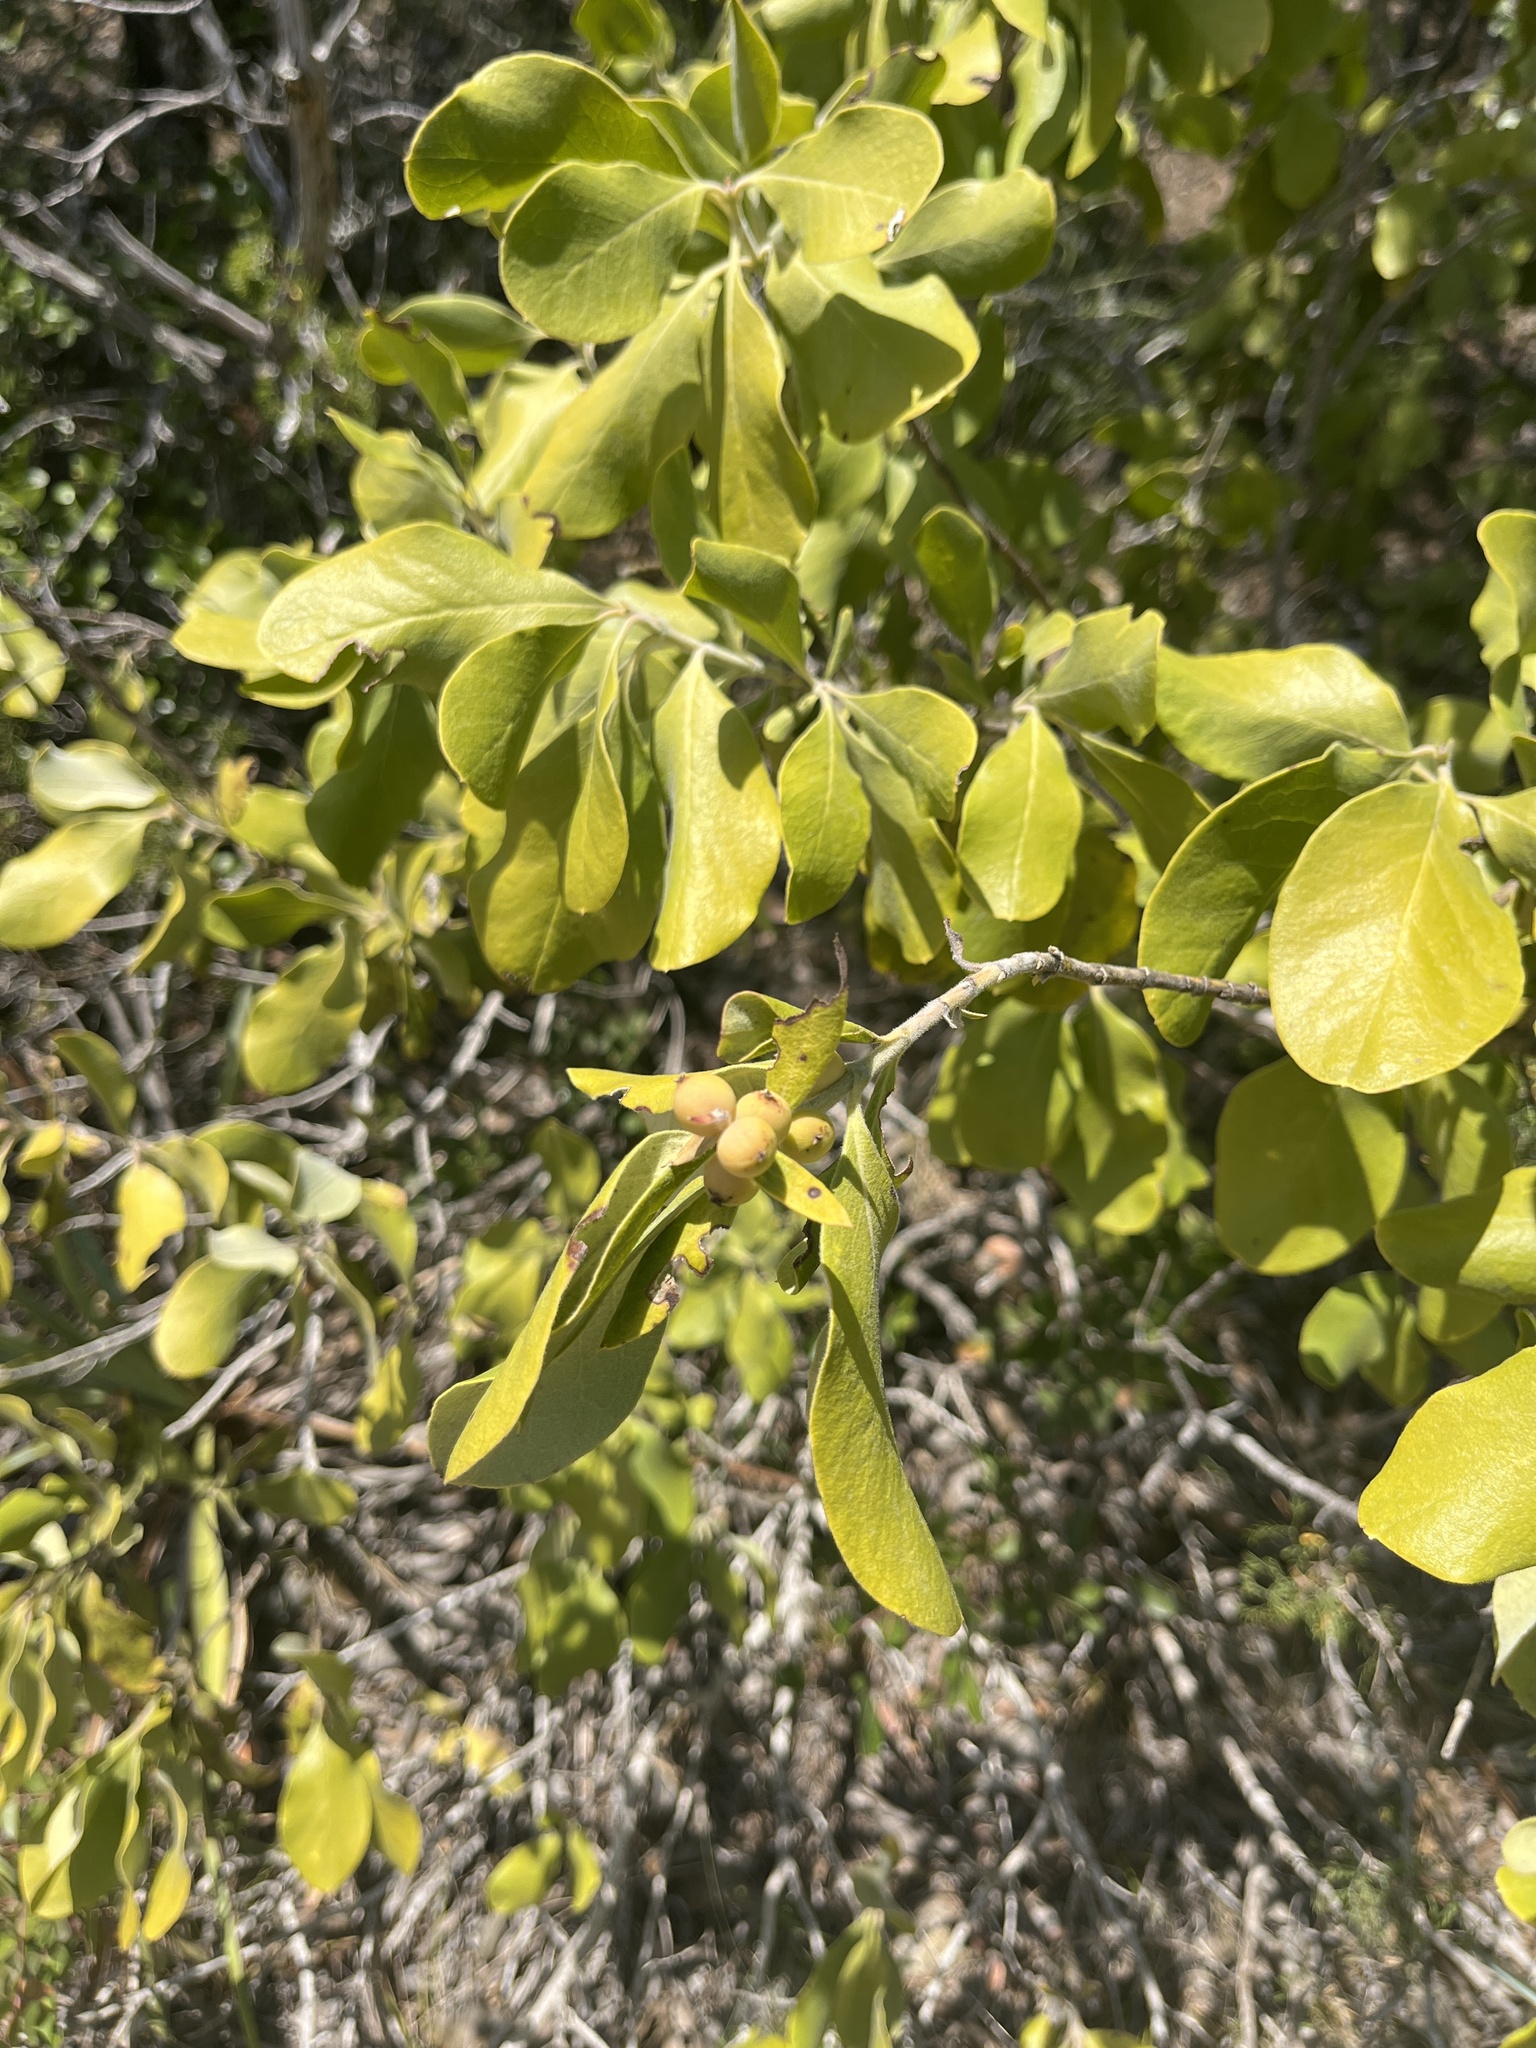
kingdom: Plantae
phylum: Tracheophyta
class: Magnoliopsida
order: Garryales
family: Garryaceae
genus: Garrya
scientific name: Garrya lindheimeri
